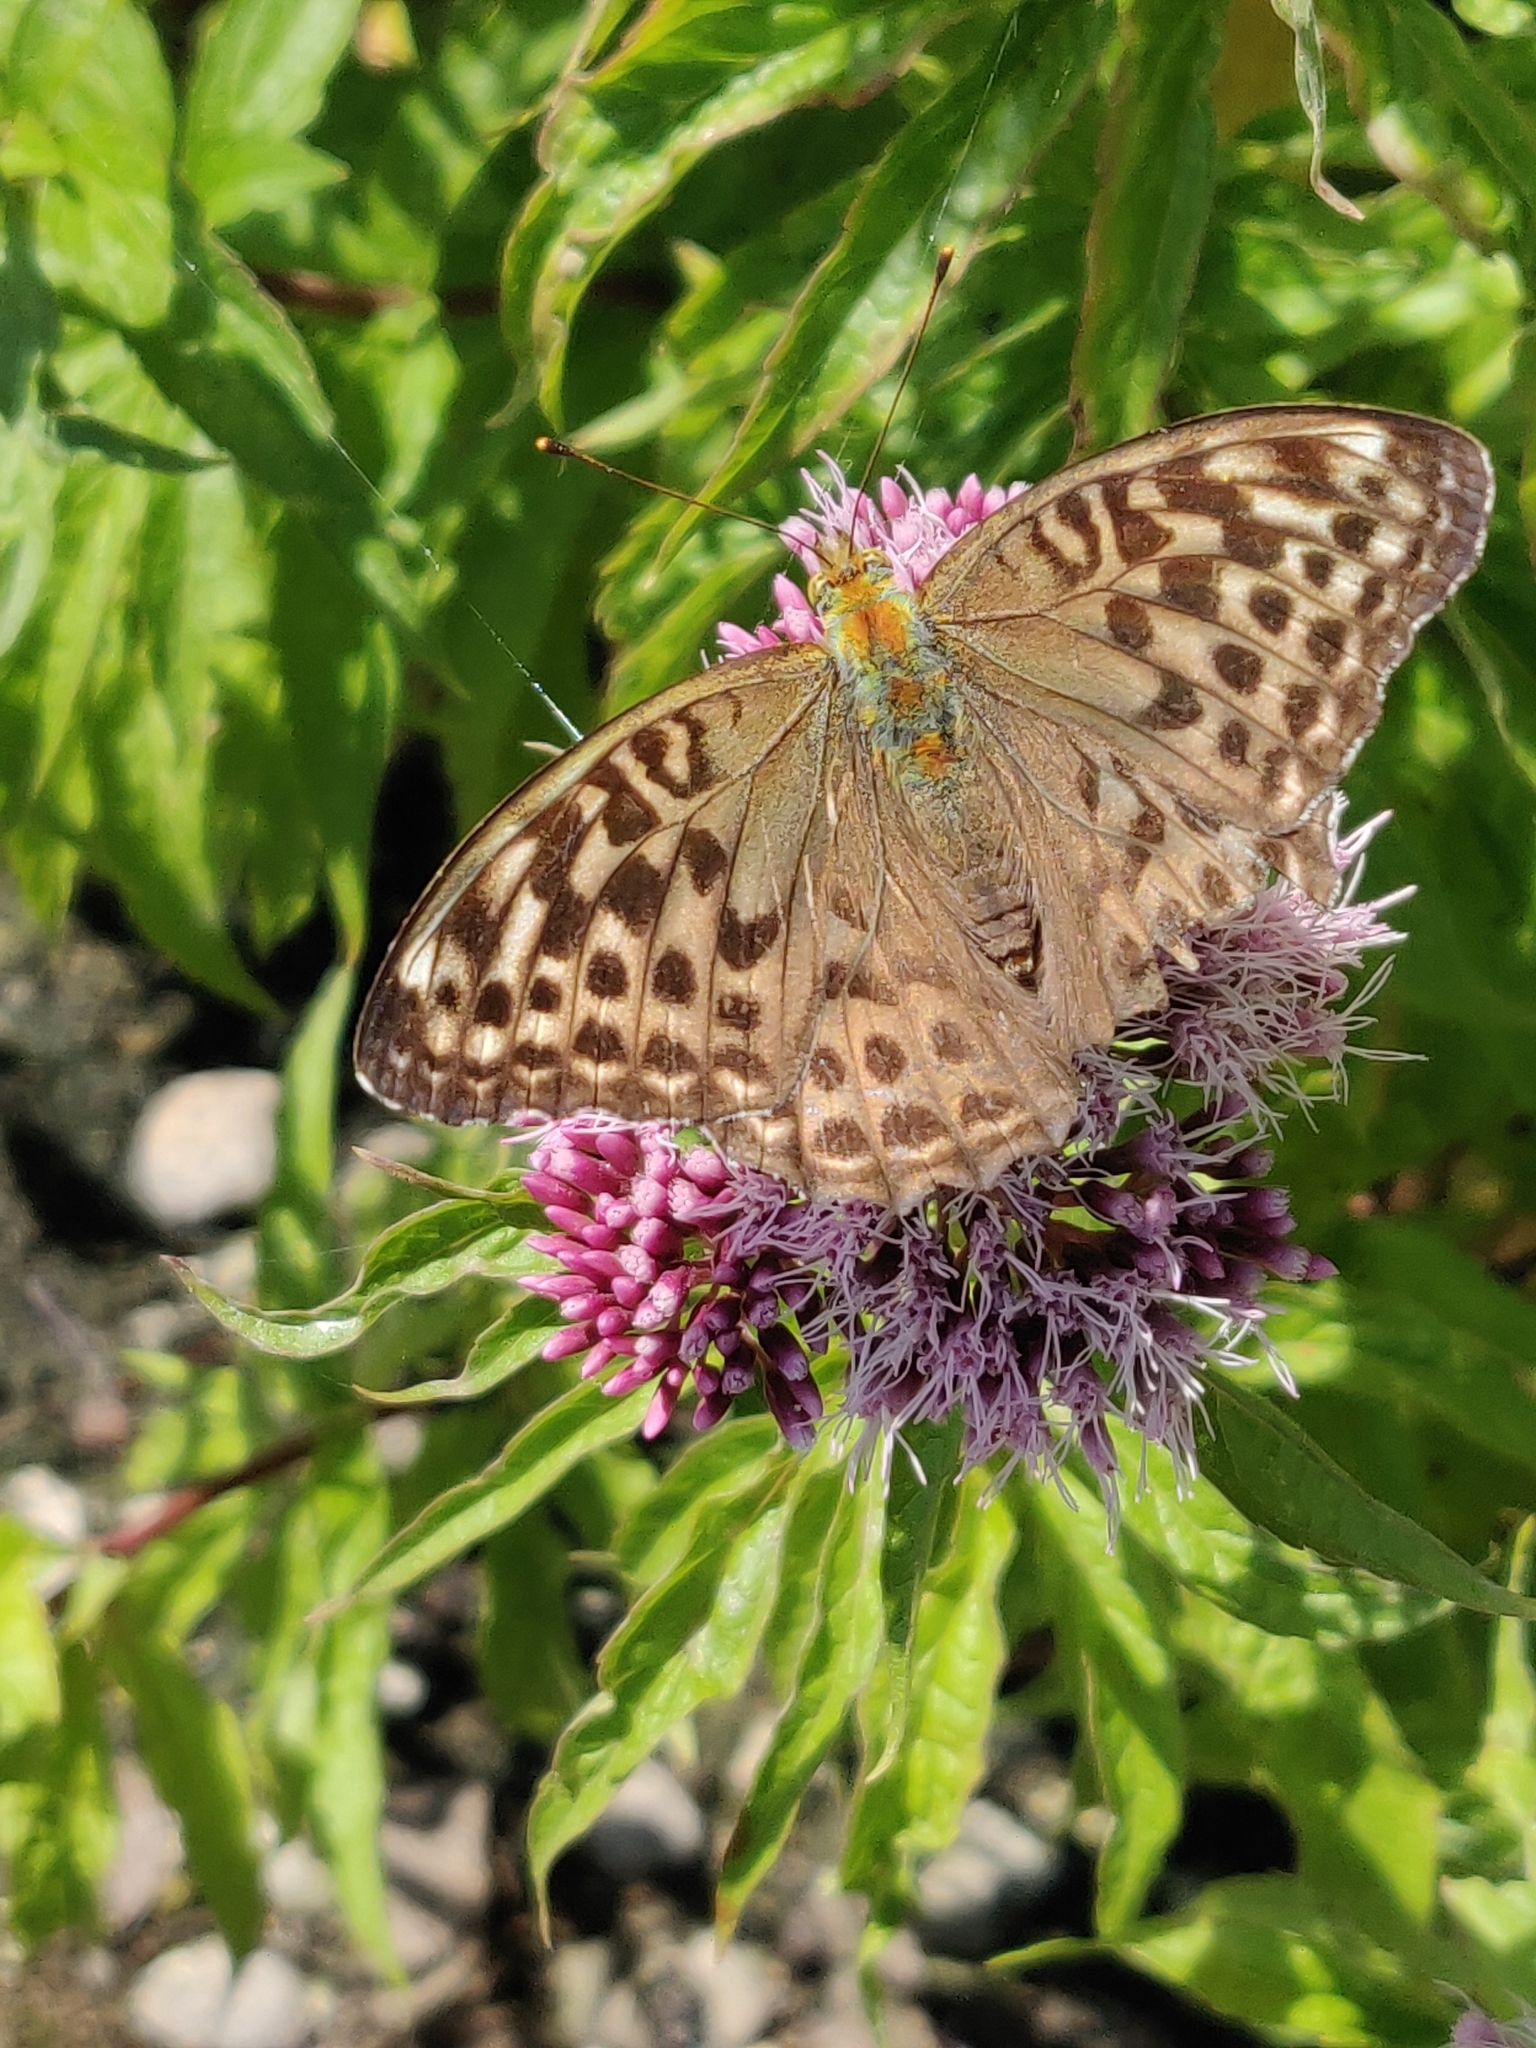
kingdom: Animalia
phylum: Arthropoda
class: Insecta
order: Lepidoptera
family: Nymphalidae
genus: Argynnis
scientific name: Argynnis paphia
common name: Silver-washed fritillary
